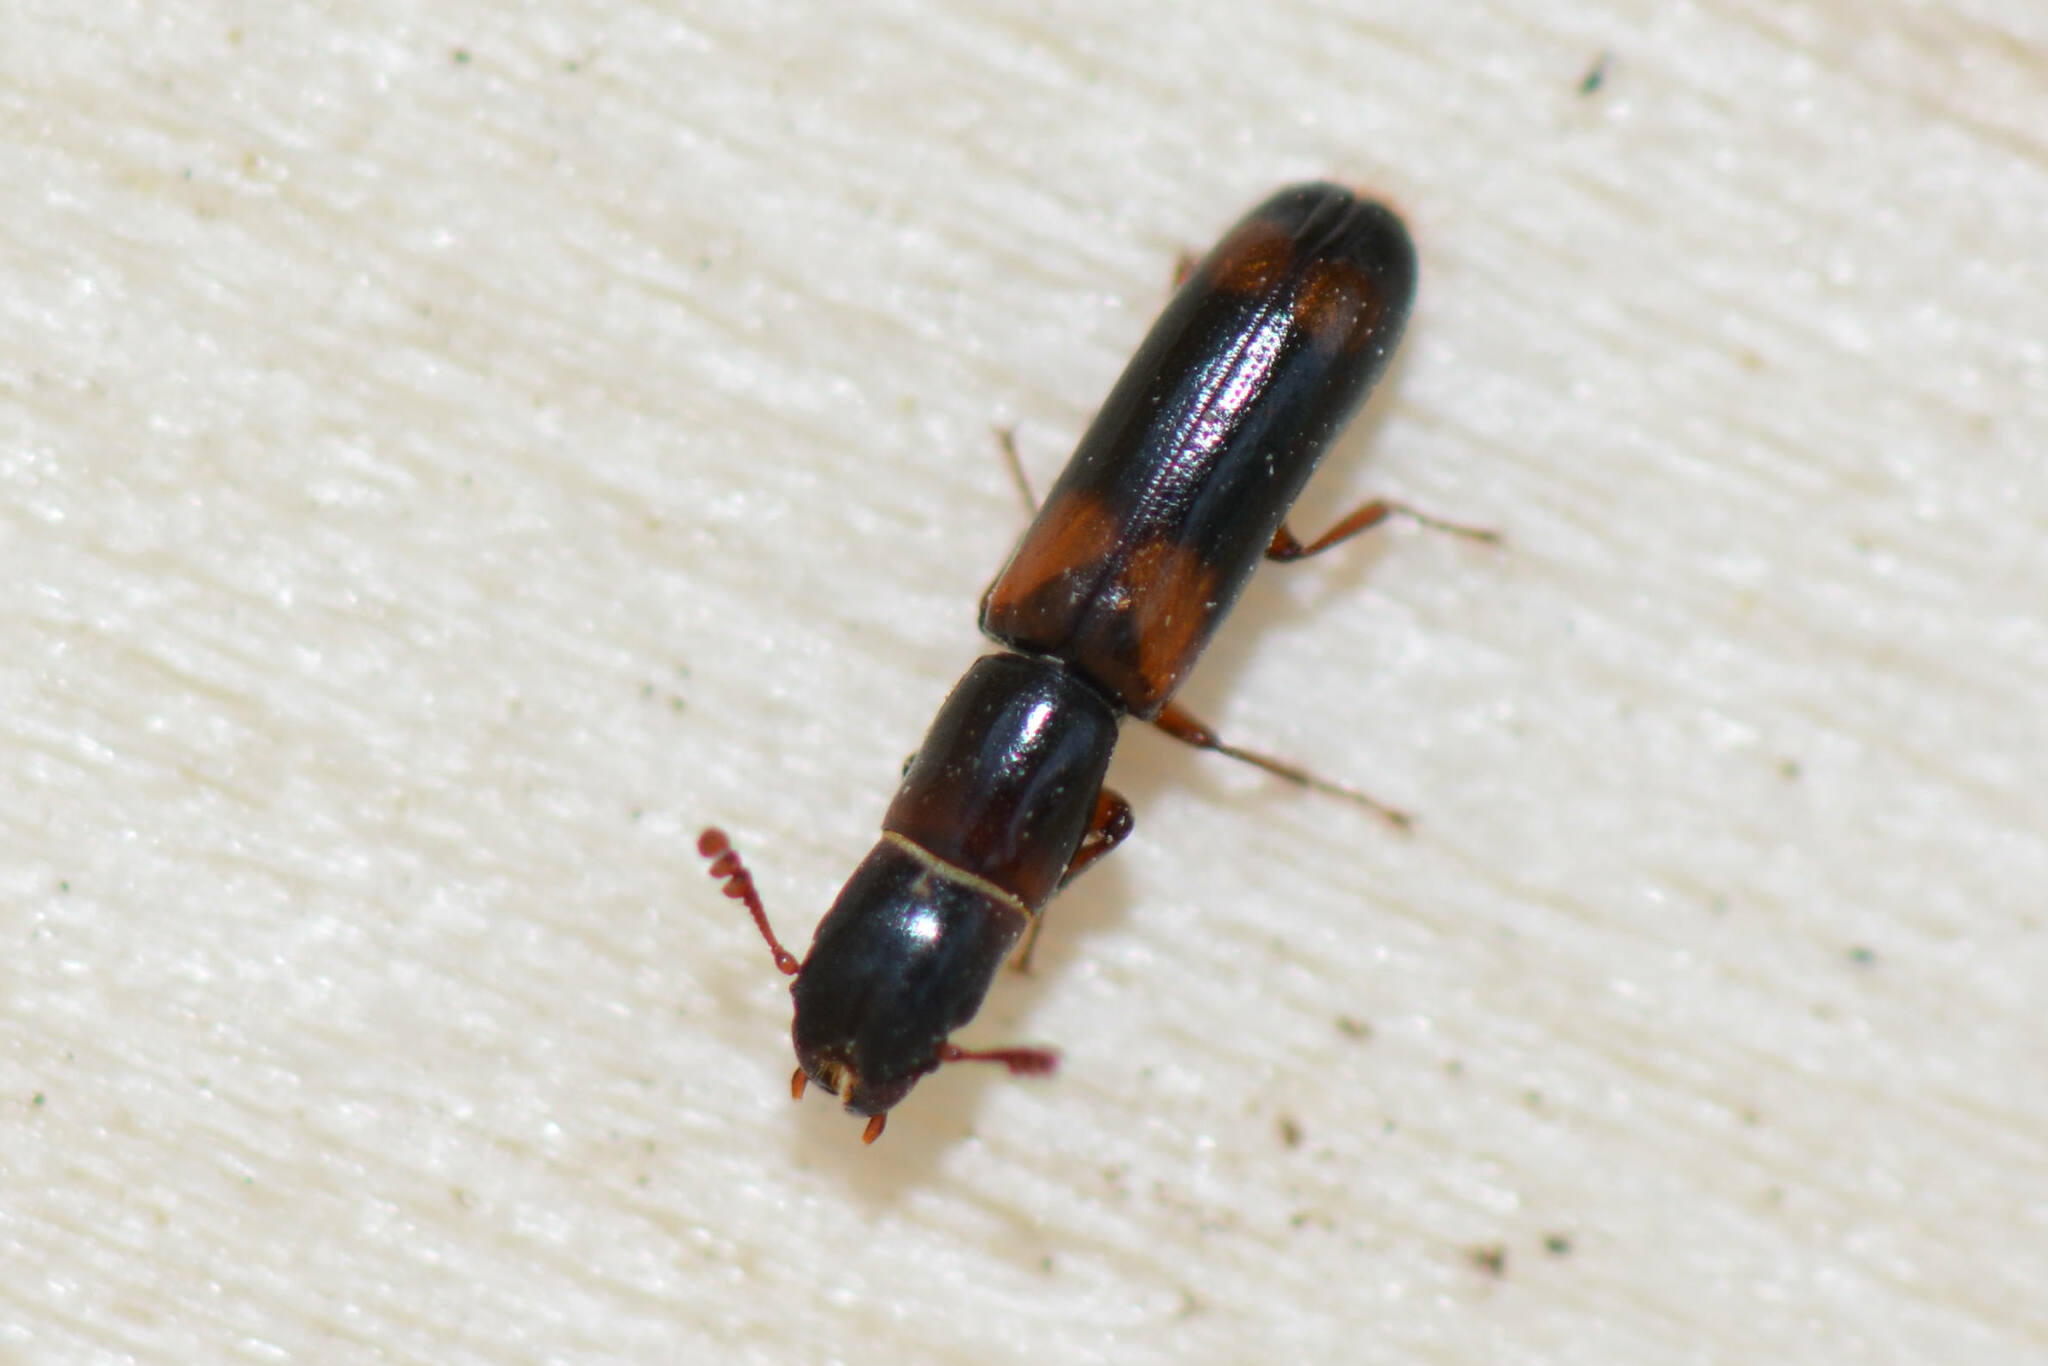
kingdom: Animalia
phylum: Arthropoda
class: Insecta
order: Coleoptera
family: Trogossitidae
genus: Nemozoma
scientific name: Nemozoma caucasicum
